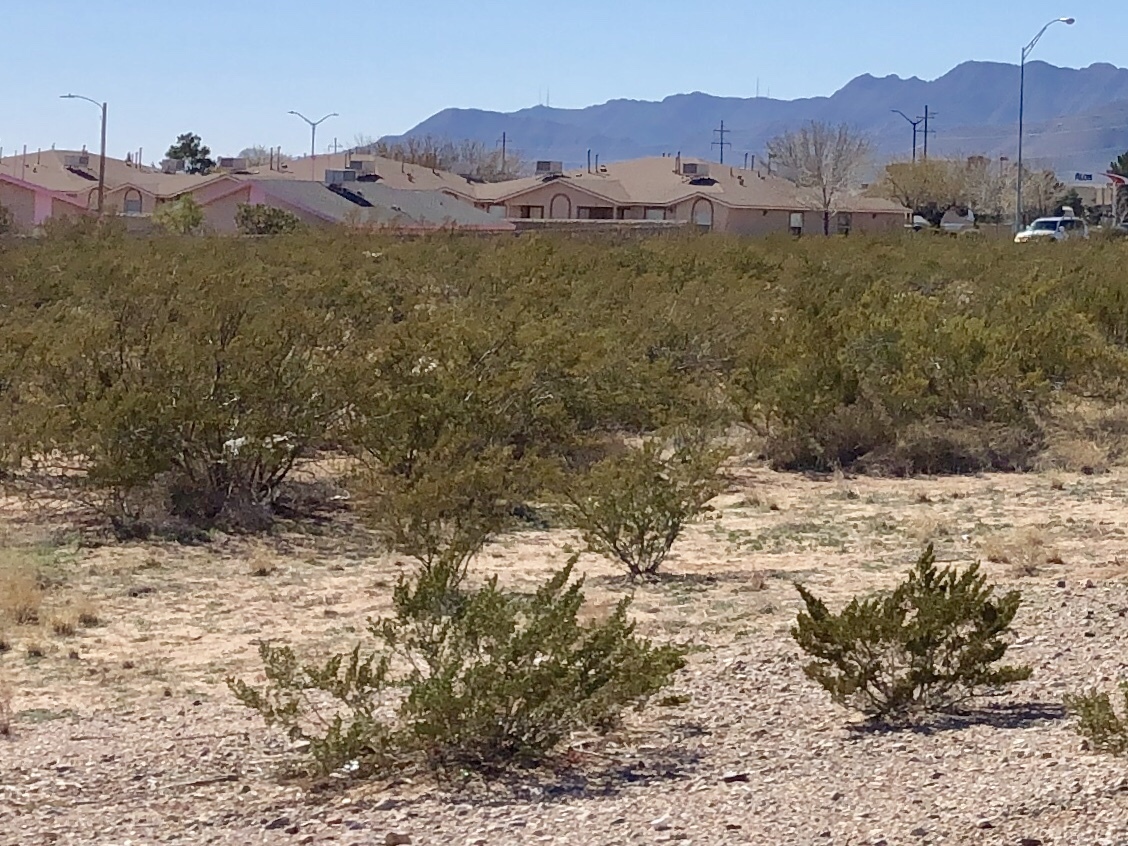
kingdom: Plantae
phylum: Tracheophyta
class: Magnoliopsida
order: Zygophyllales
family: Zygophyllaceae
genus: Larrea
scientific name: Larrea tridentata
